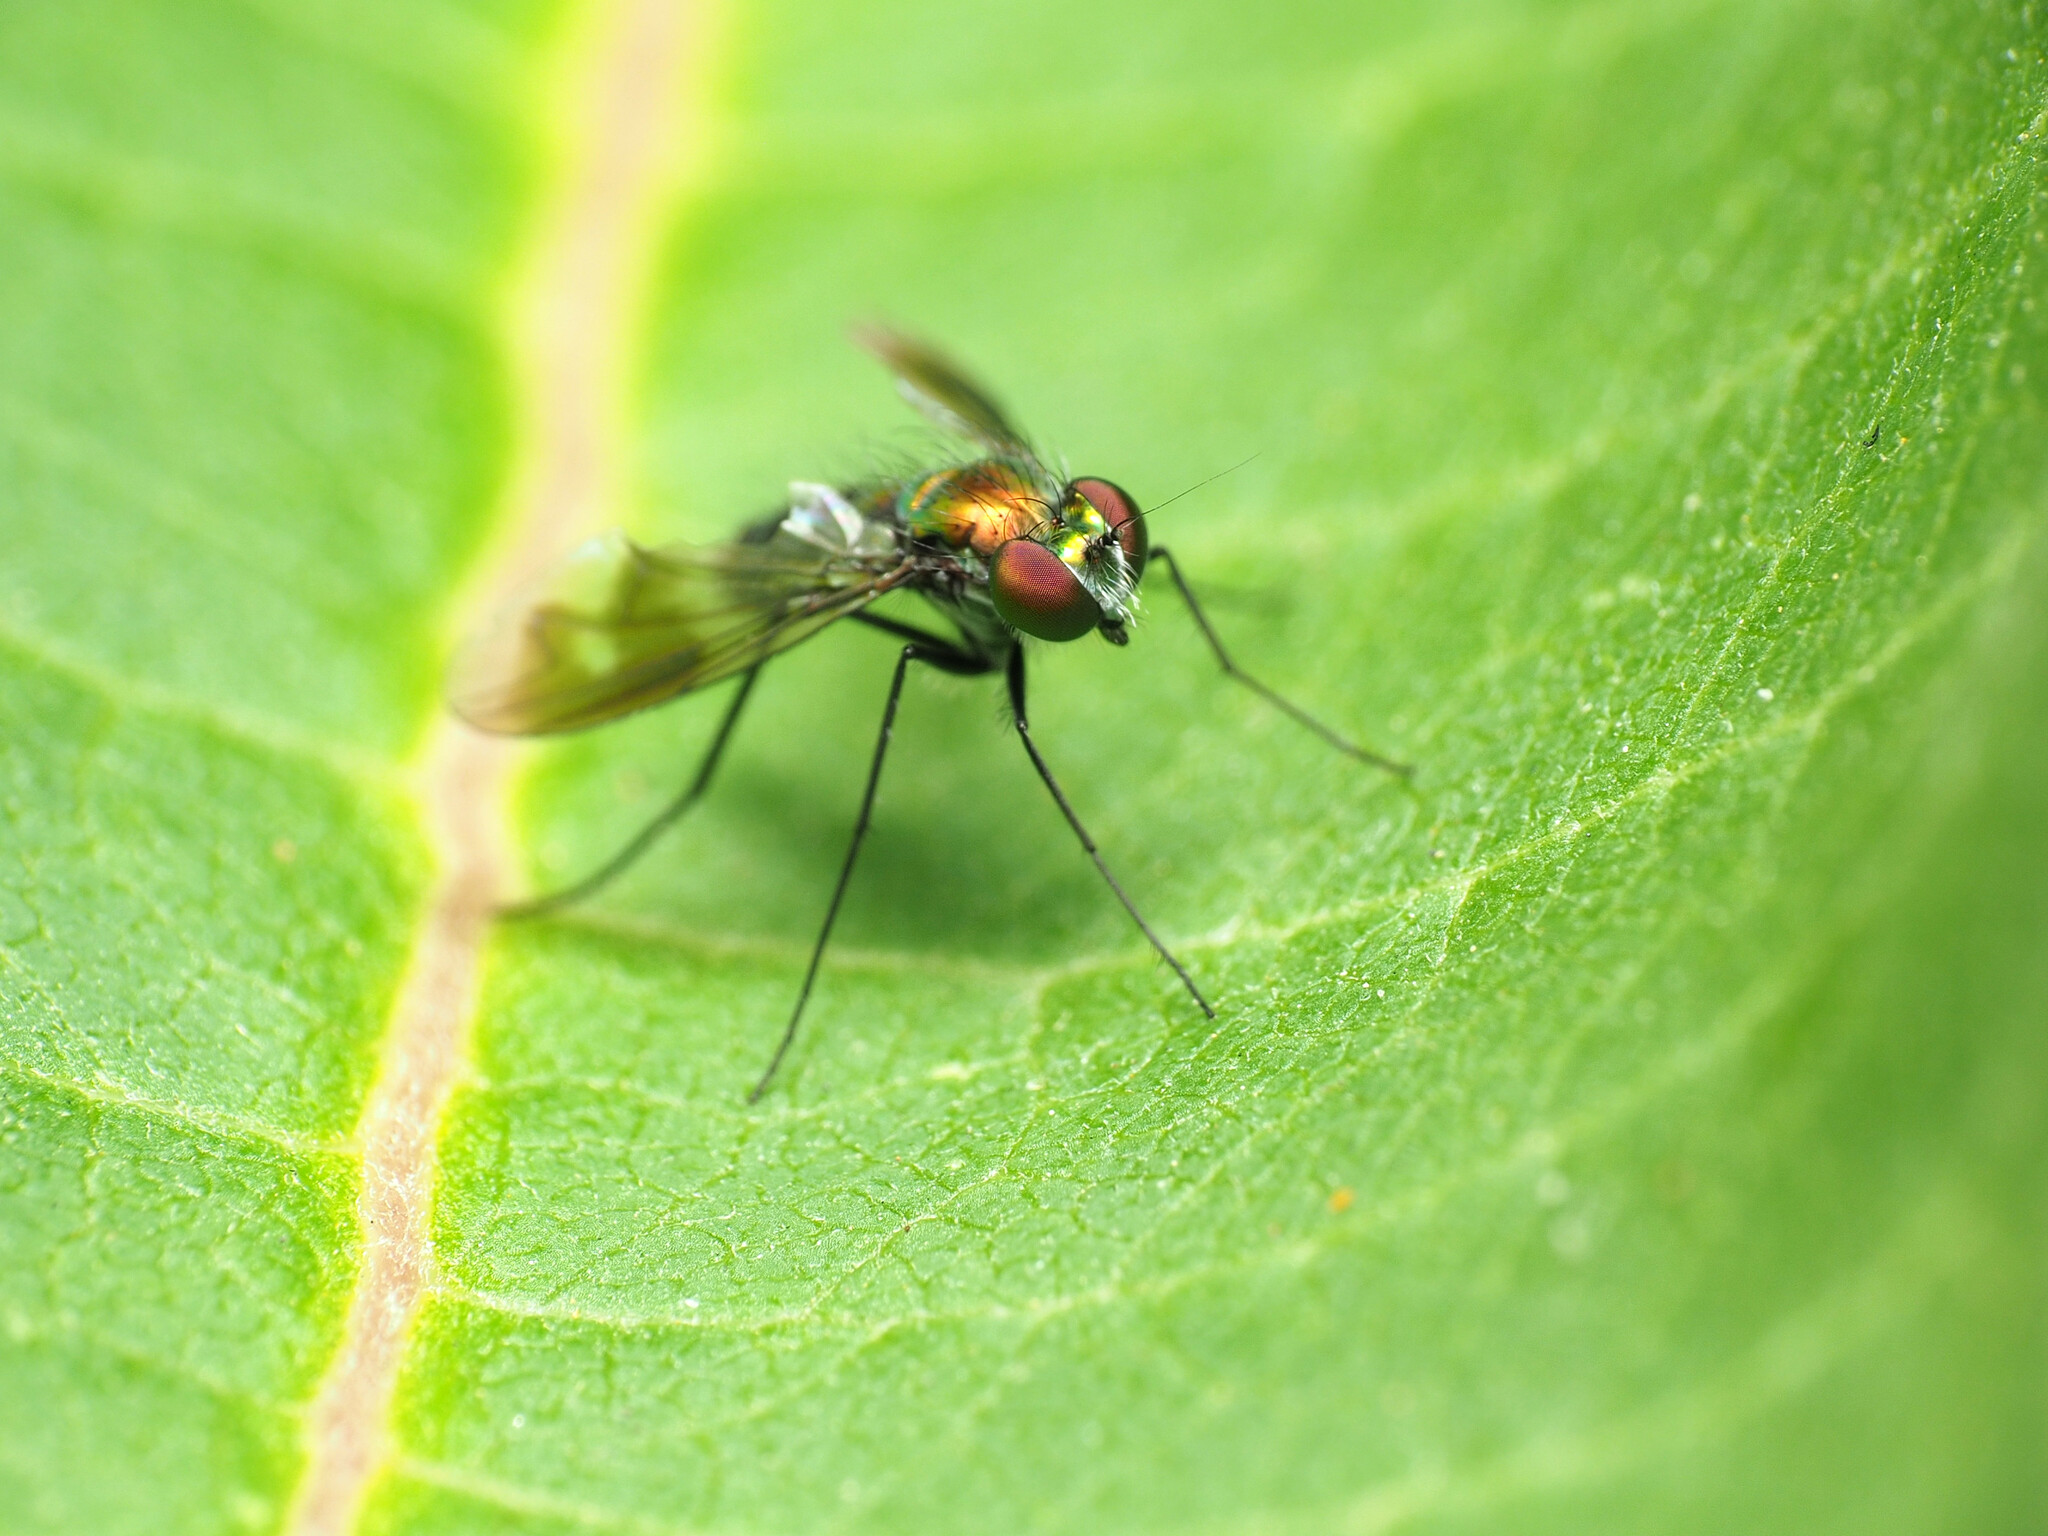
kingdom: Animalia
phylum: Arthropoda
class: Insecta
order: Diptera
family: Dolichopodidae
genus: Condylostylus
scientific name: Condylostylus patibulatus
